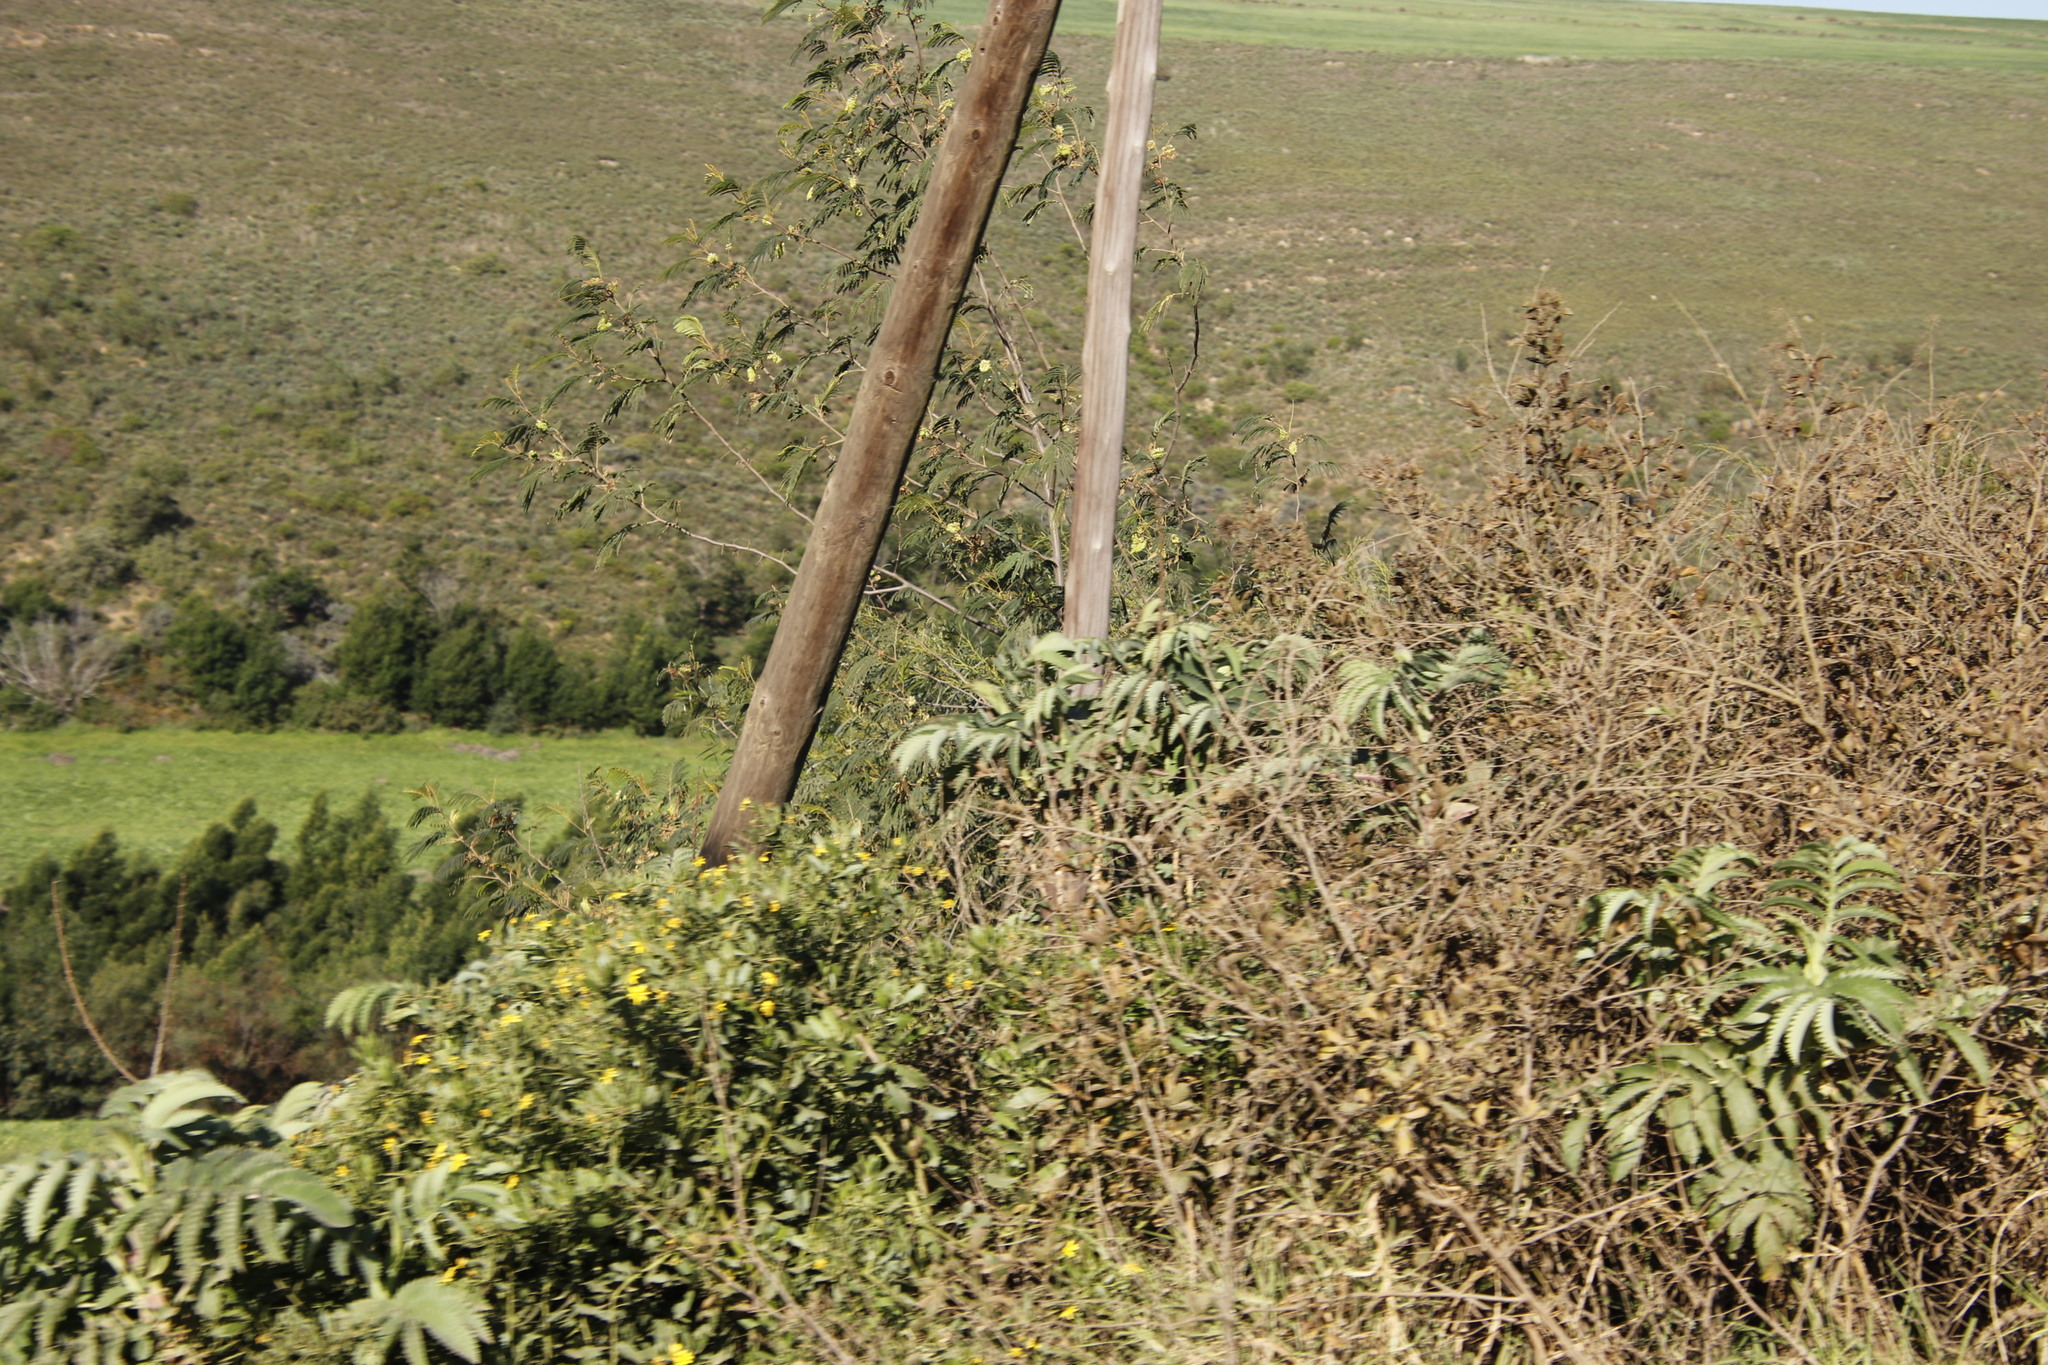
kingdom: Plantae
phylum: Tracheophyta
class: Magnoliopsida
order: Geraniales
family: Melianthaceae
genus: Melianthus
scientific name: Melianthus major
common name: Honey-flower
